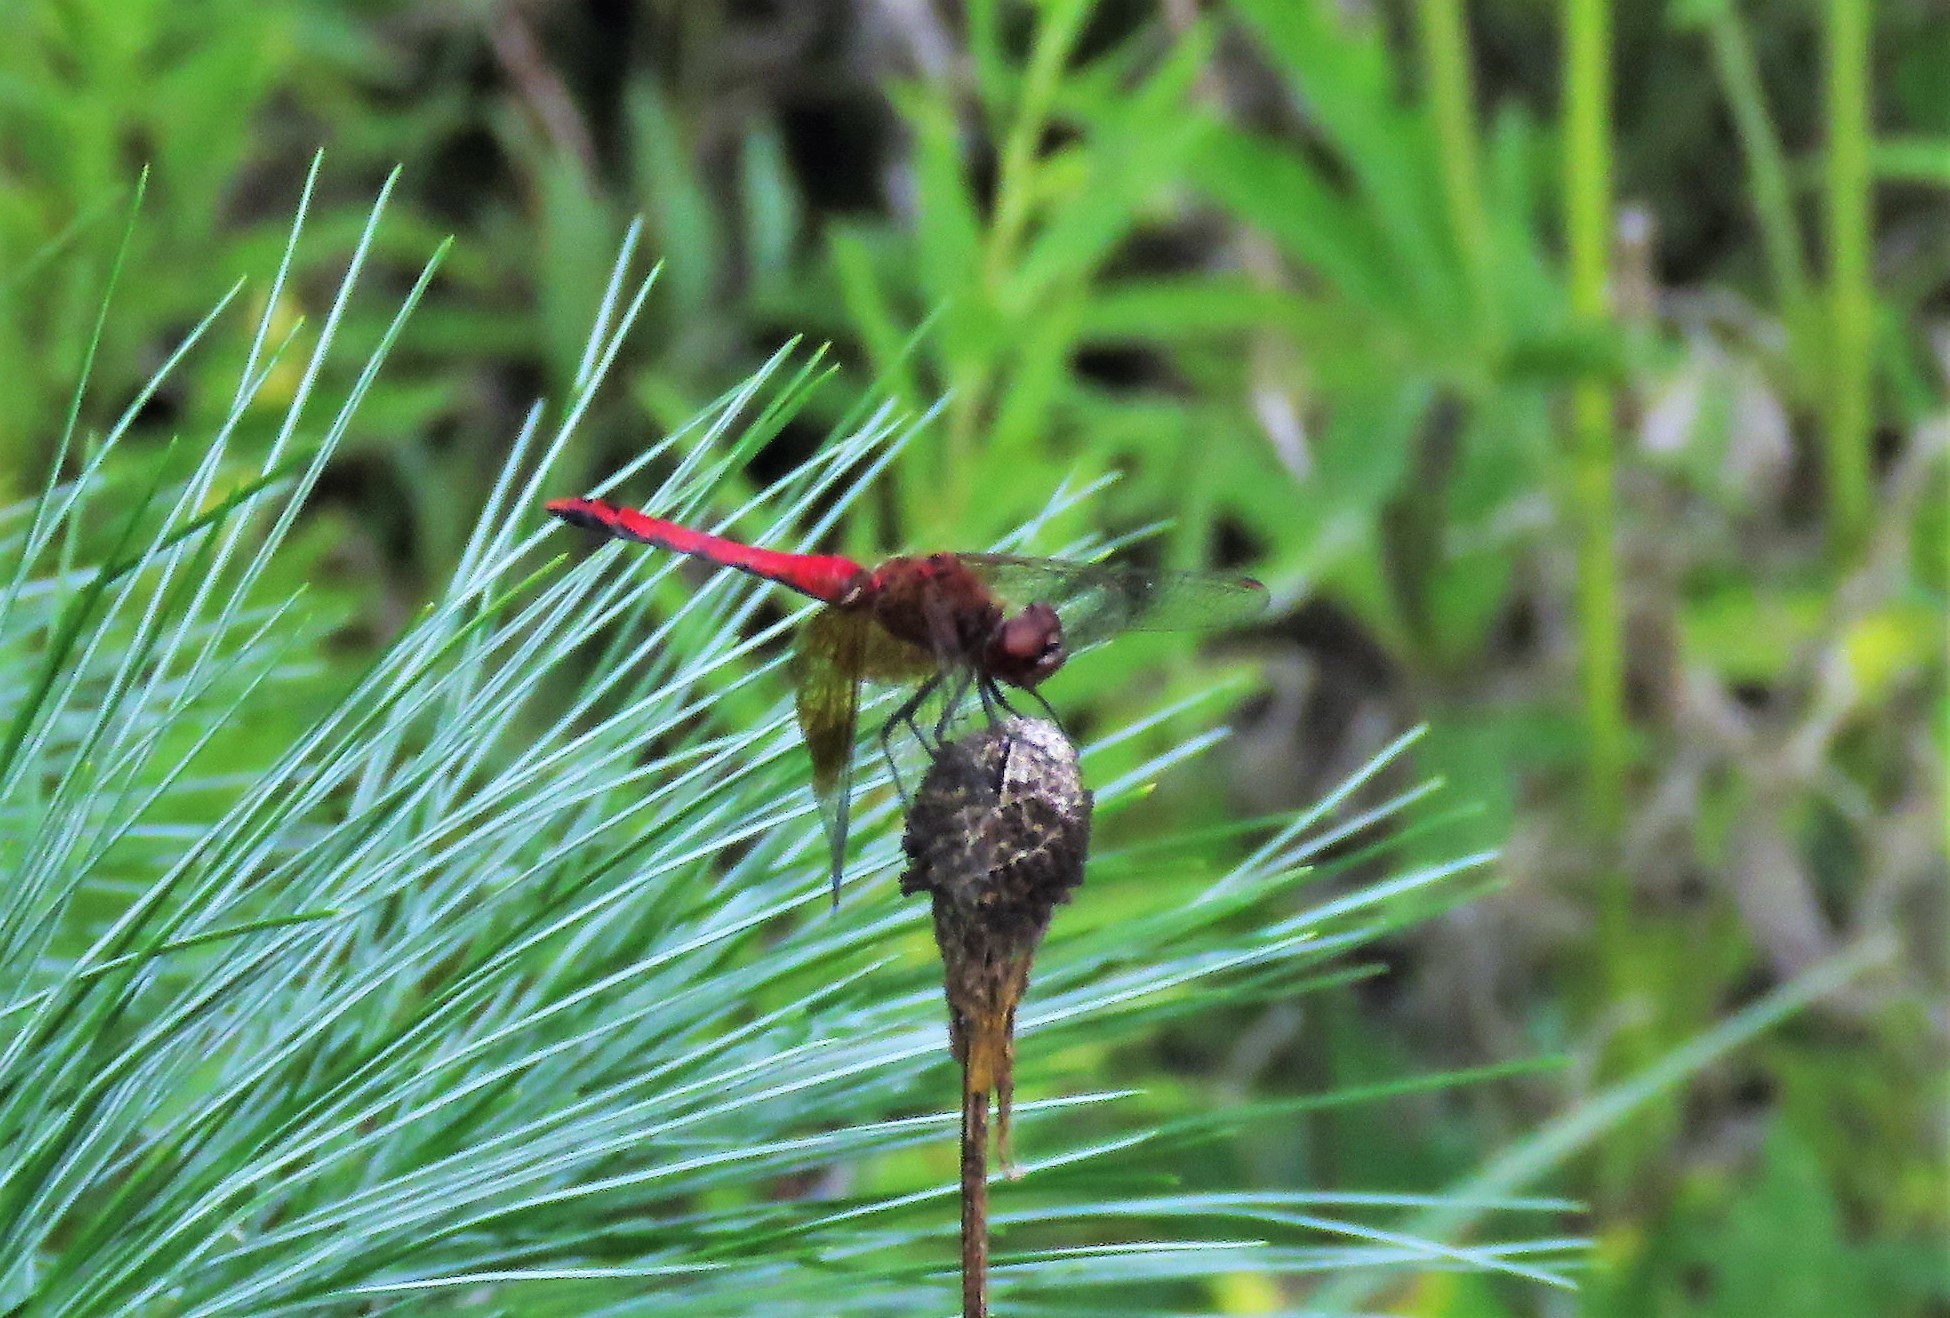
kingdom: Animalia
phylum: Arthropoda
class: Insecta
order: Odonata
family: Libellulidae
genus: Sympetrum
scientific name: Sympetrum semicinctum
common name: Band-winged meadowhawk
